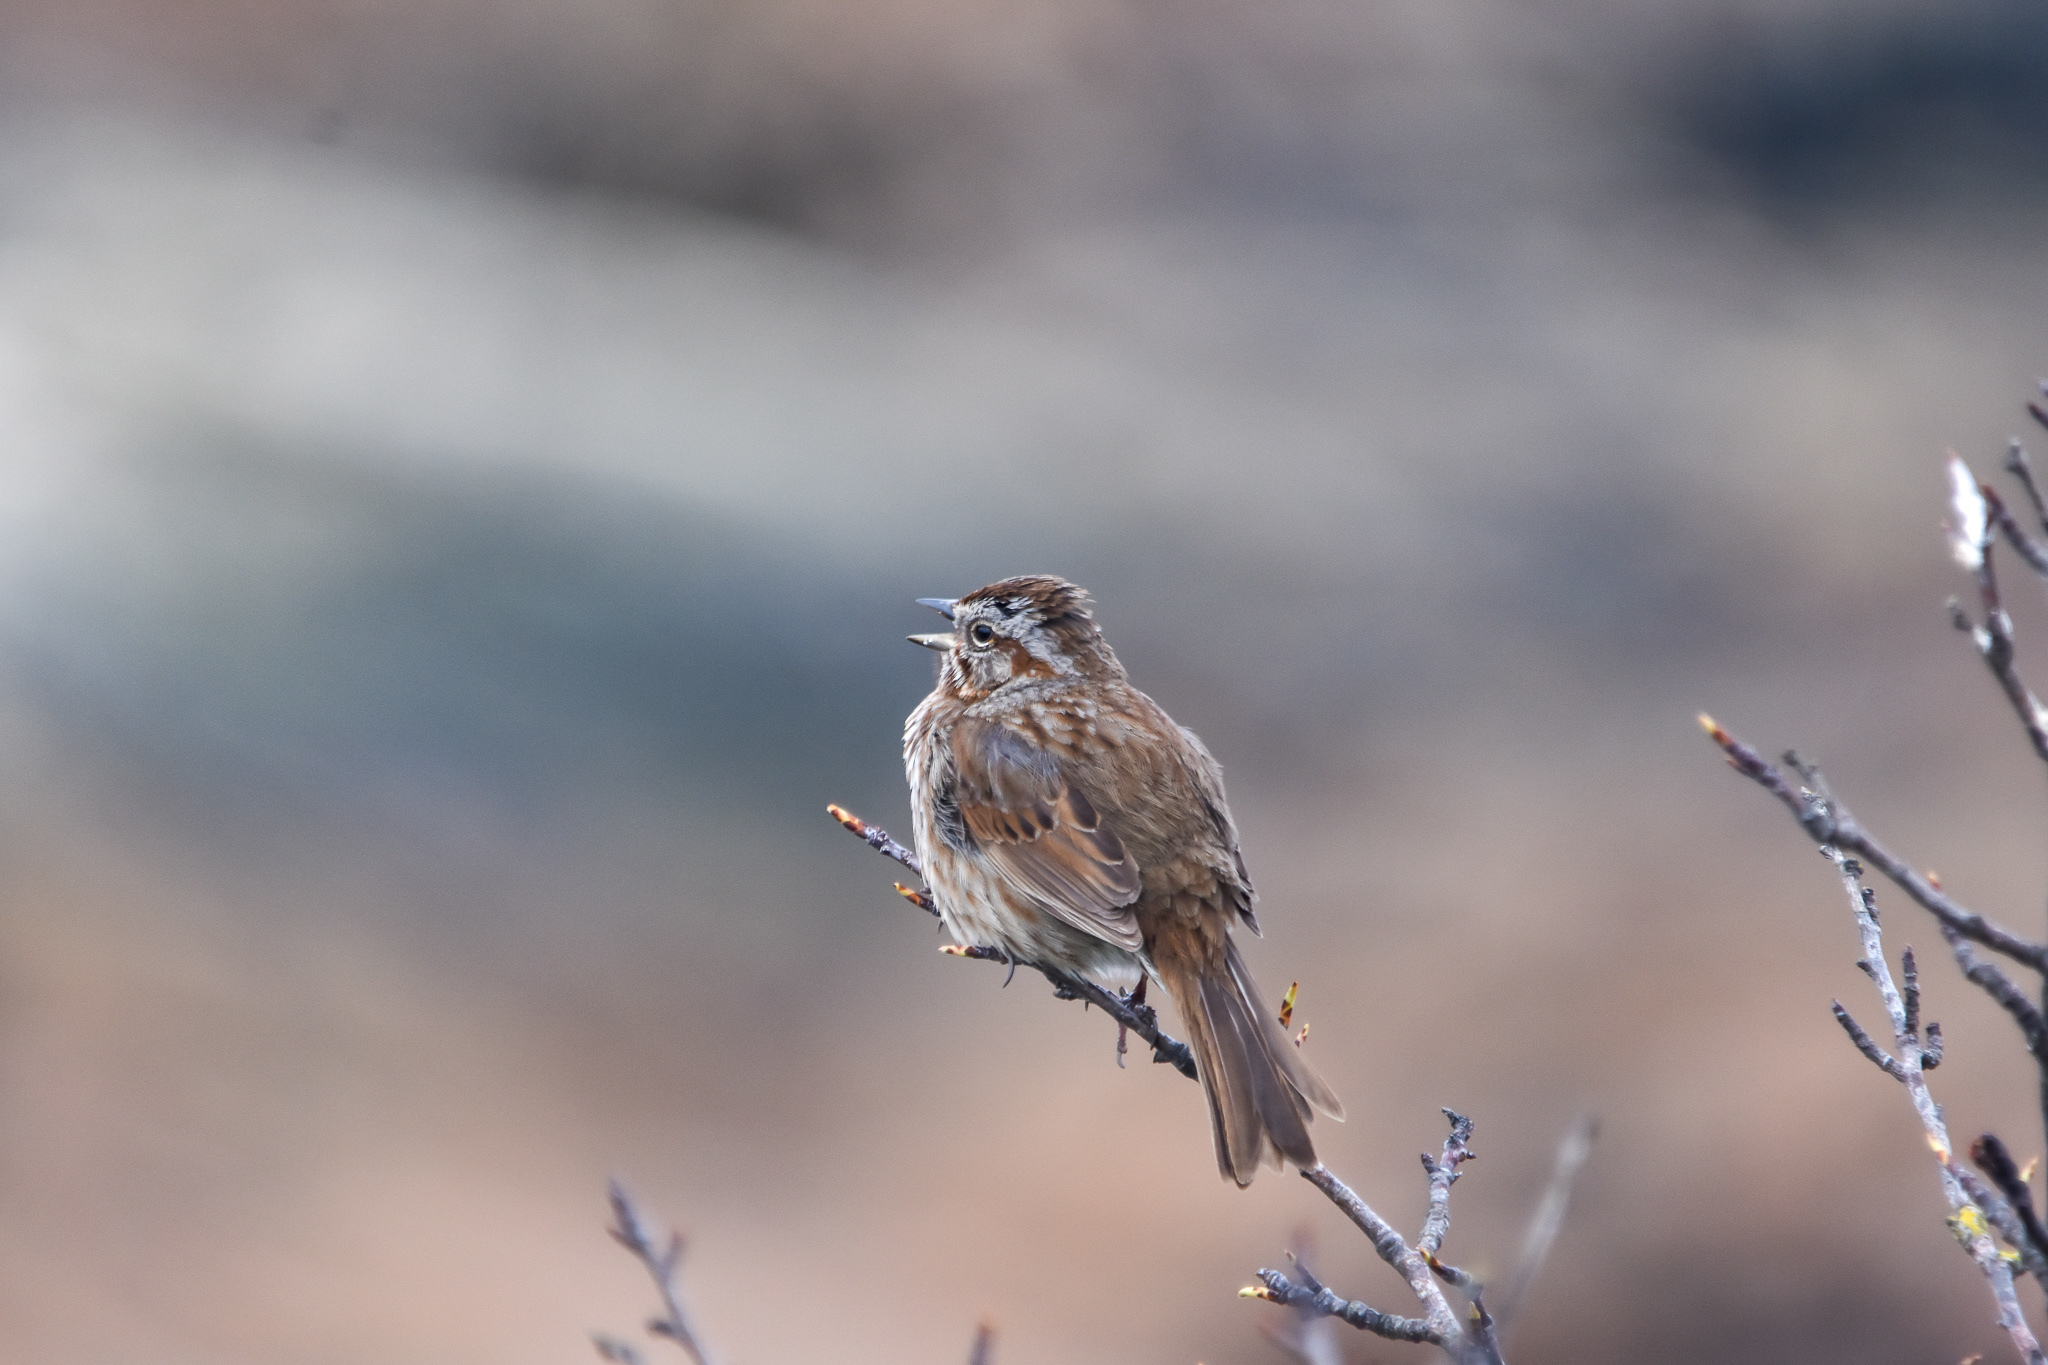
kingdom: Animalia
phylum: Chordata
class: Aves
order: Passeriformes
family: Passerellidae
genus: Melospiza
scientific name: Melospiza melodia
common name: Song sparrow
